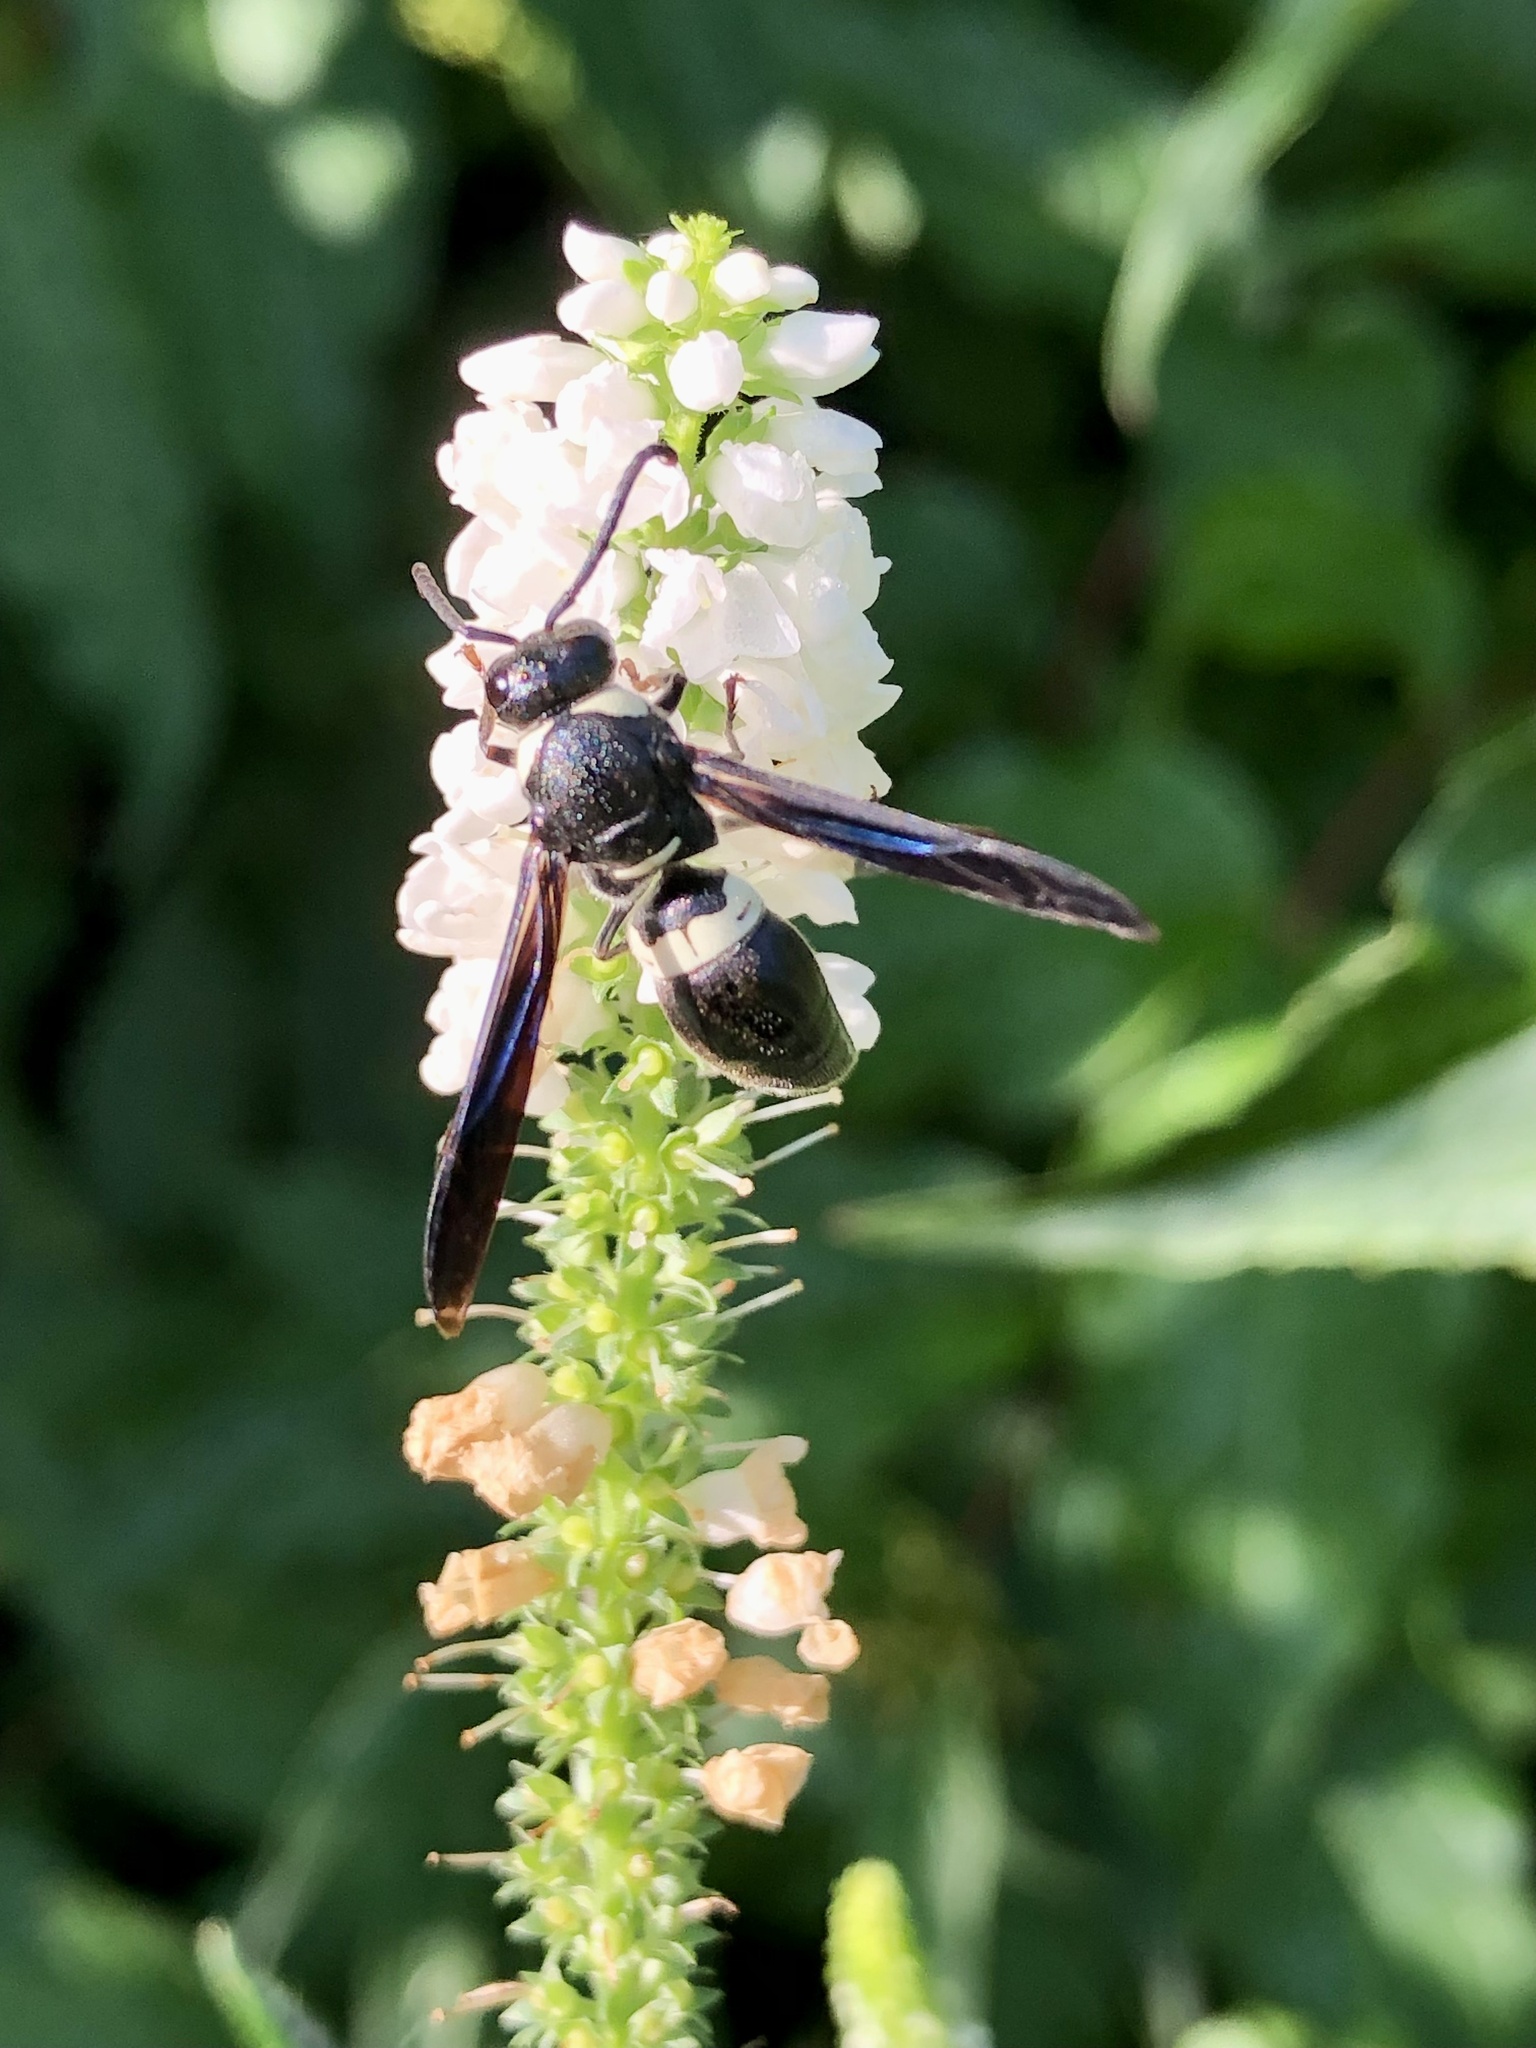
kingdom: Animalia
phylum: Arthropoda
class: Insecta
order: Hymenoptera
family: Eumenidae
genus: Monobia
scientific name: Monobia quadridens
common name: Four-toothed mason wasp
